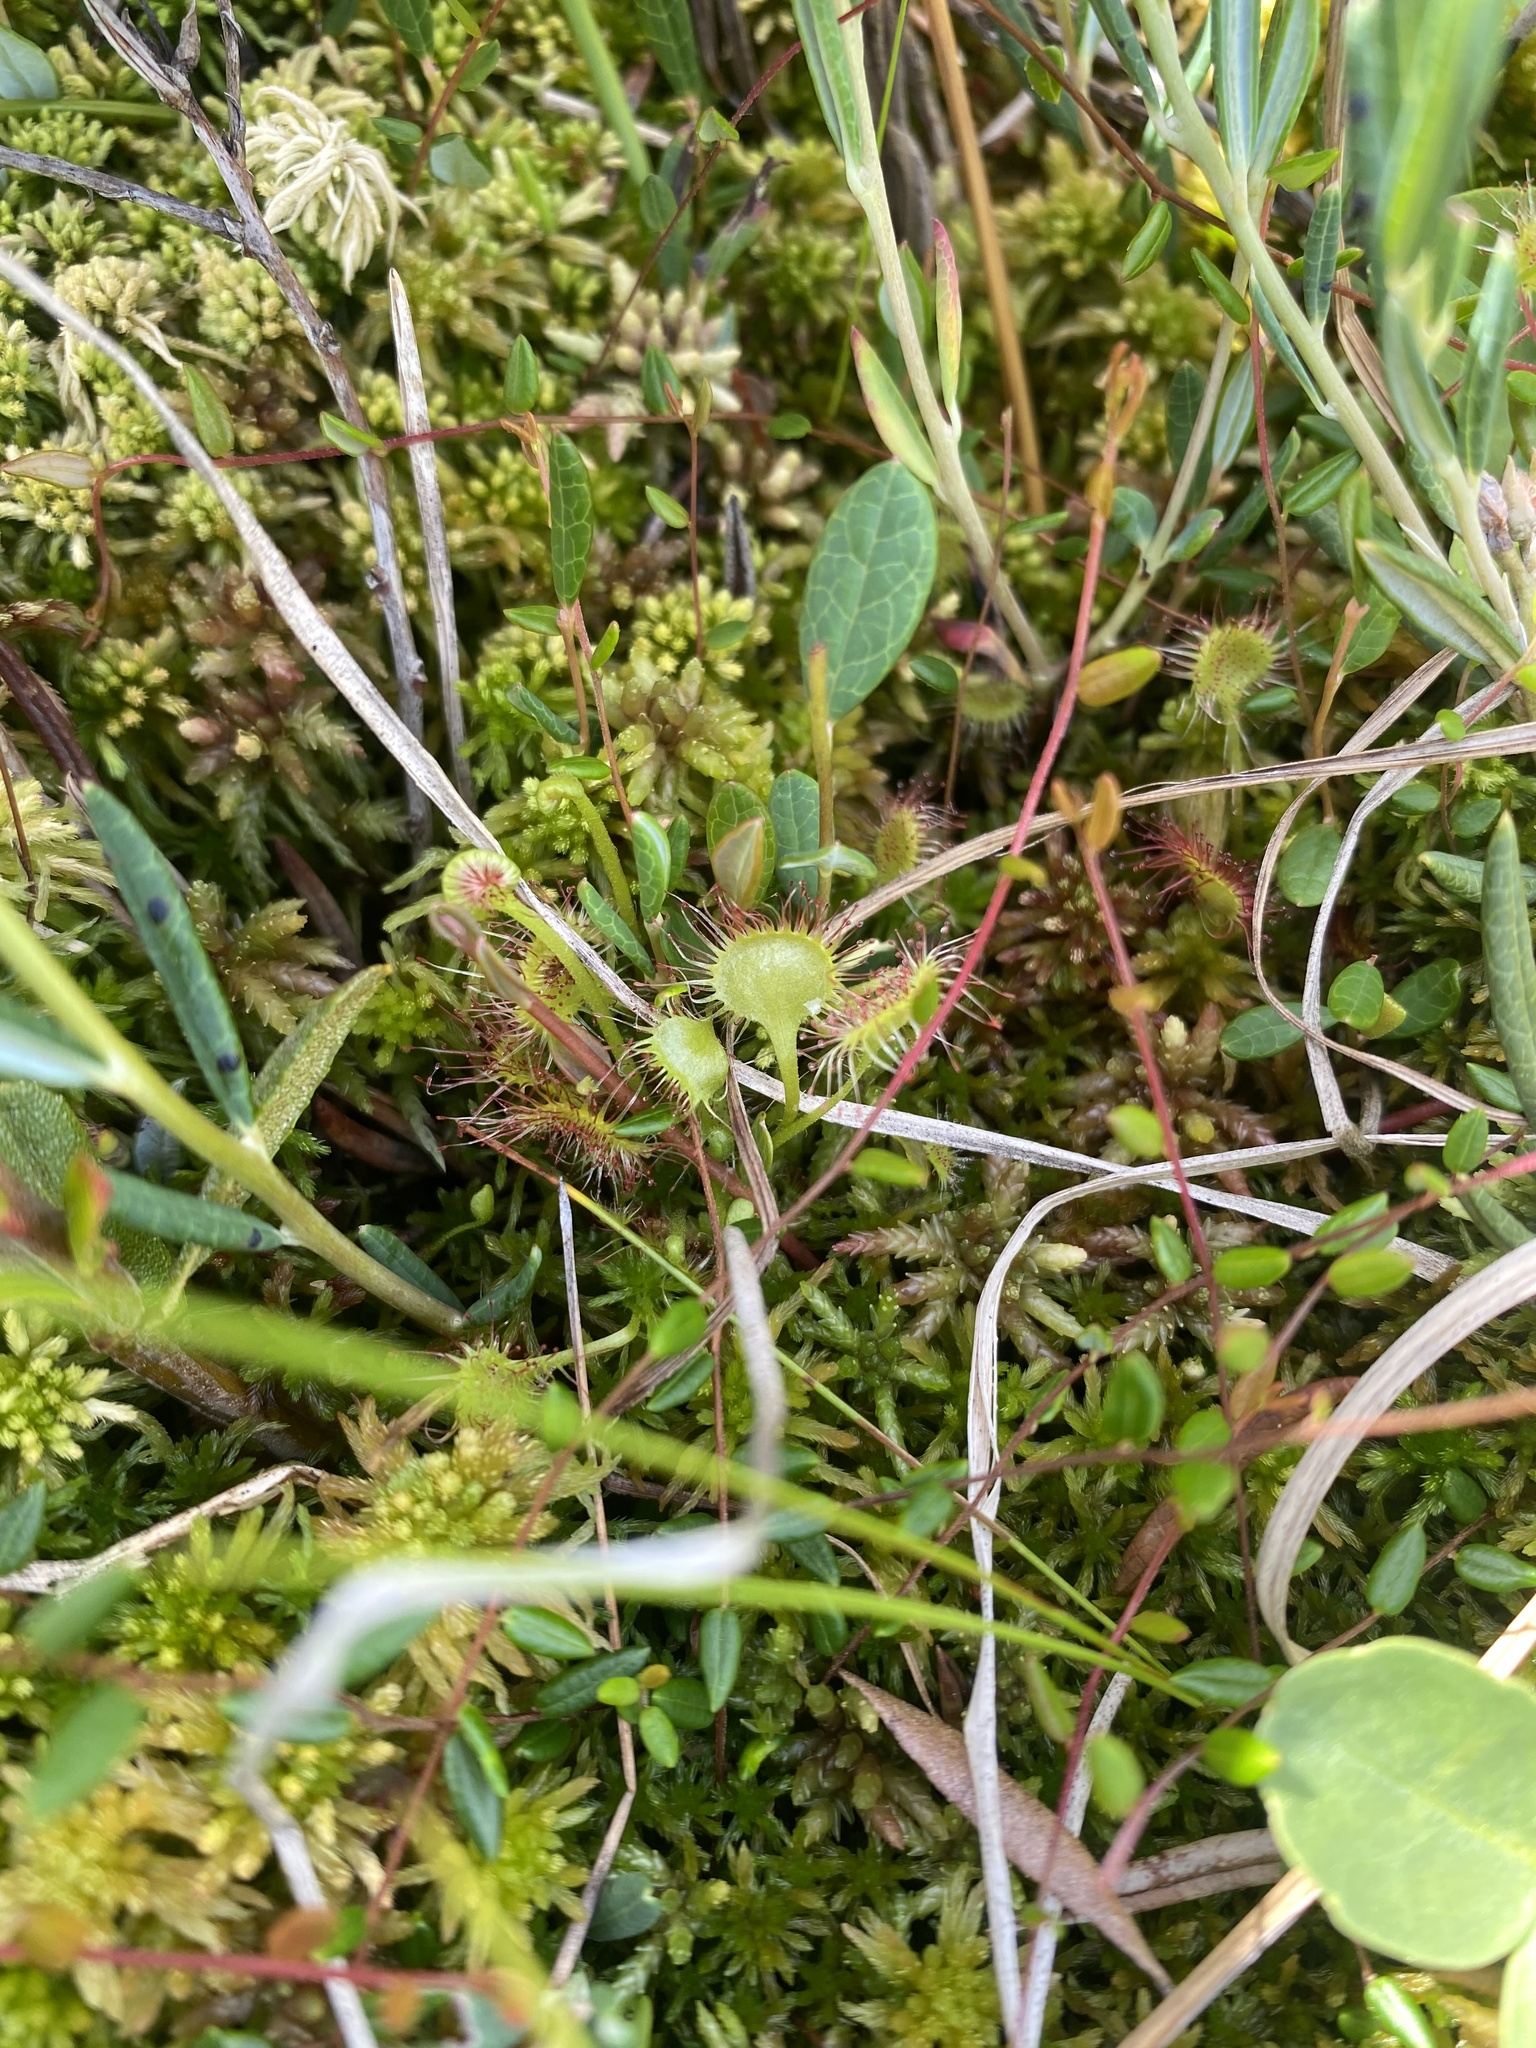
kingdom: Plantae
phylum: Tracheophyta
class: Magnoliopsida
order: Caryophyllales
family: Droseraceae
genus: Drosera
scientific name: Drosera rotundifolia
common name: Round-leaved sundew
